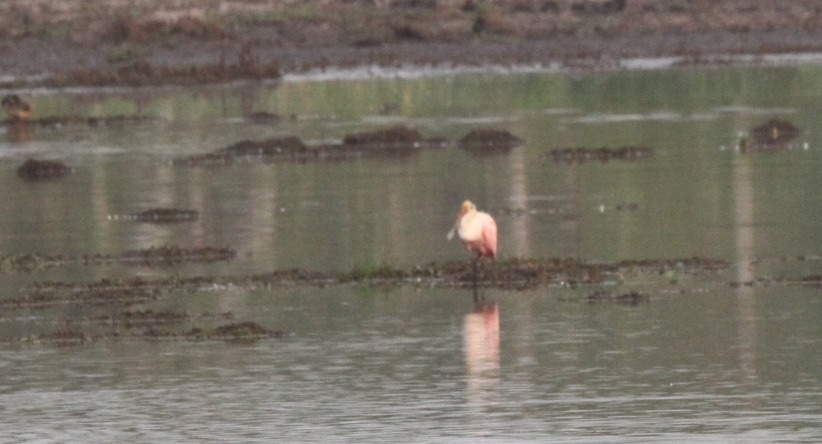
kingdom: Animalia
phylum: Chordata
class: Aves
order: Pelecaniformes
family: Threskiornithidae
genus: Platalea
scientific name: Platalea ajaja
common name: Roseate spoonbill
